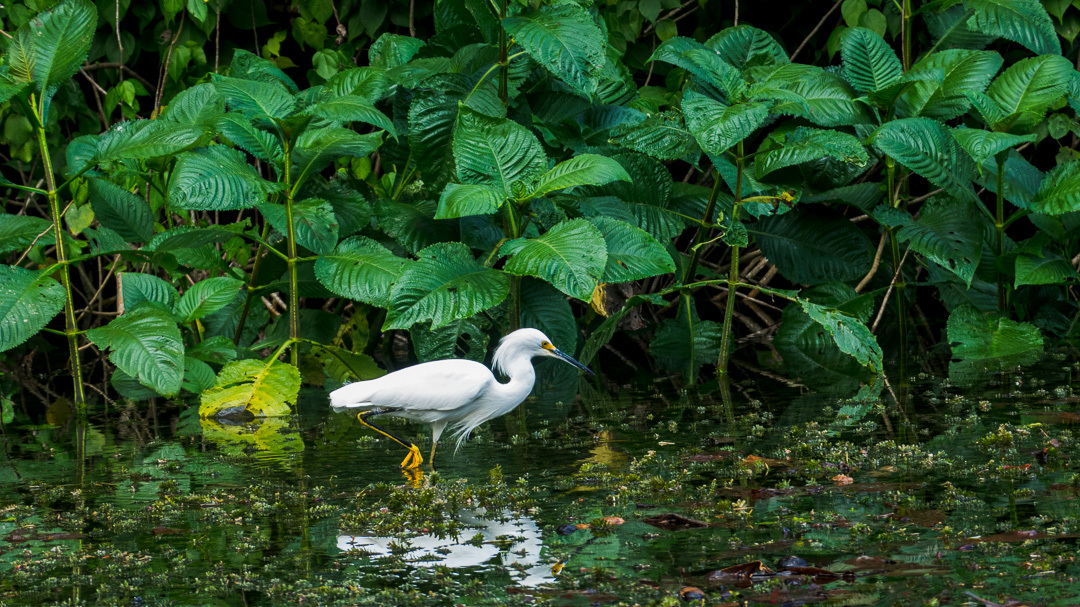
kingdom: Animalia
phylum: Chordata
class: Aves
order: Pelecaniformes
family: Ardeidae
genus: Egretta
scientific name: Egretta thula
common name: Snowy egret
